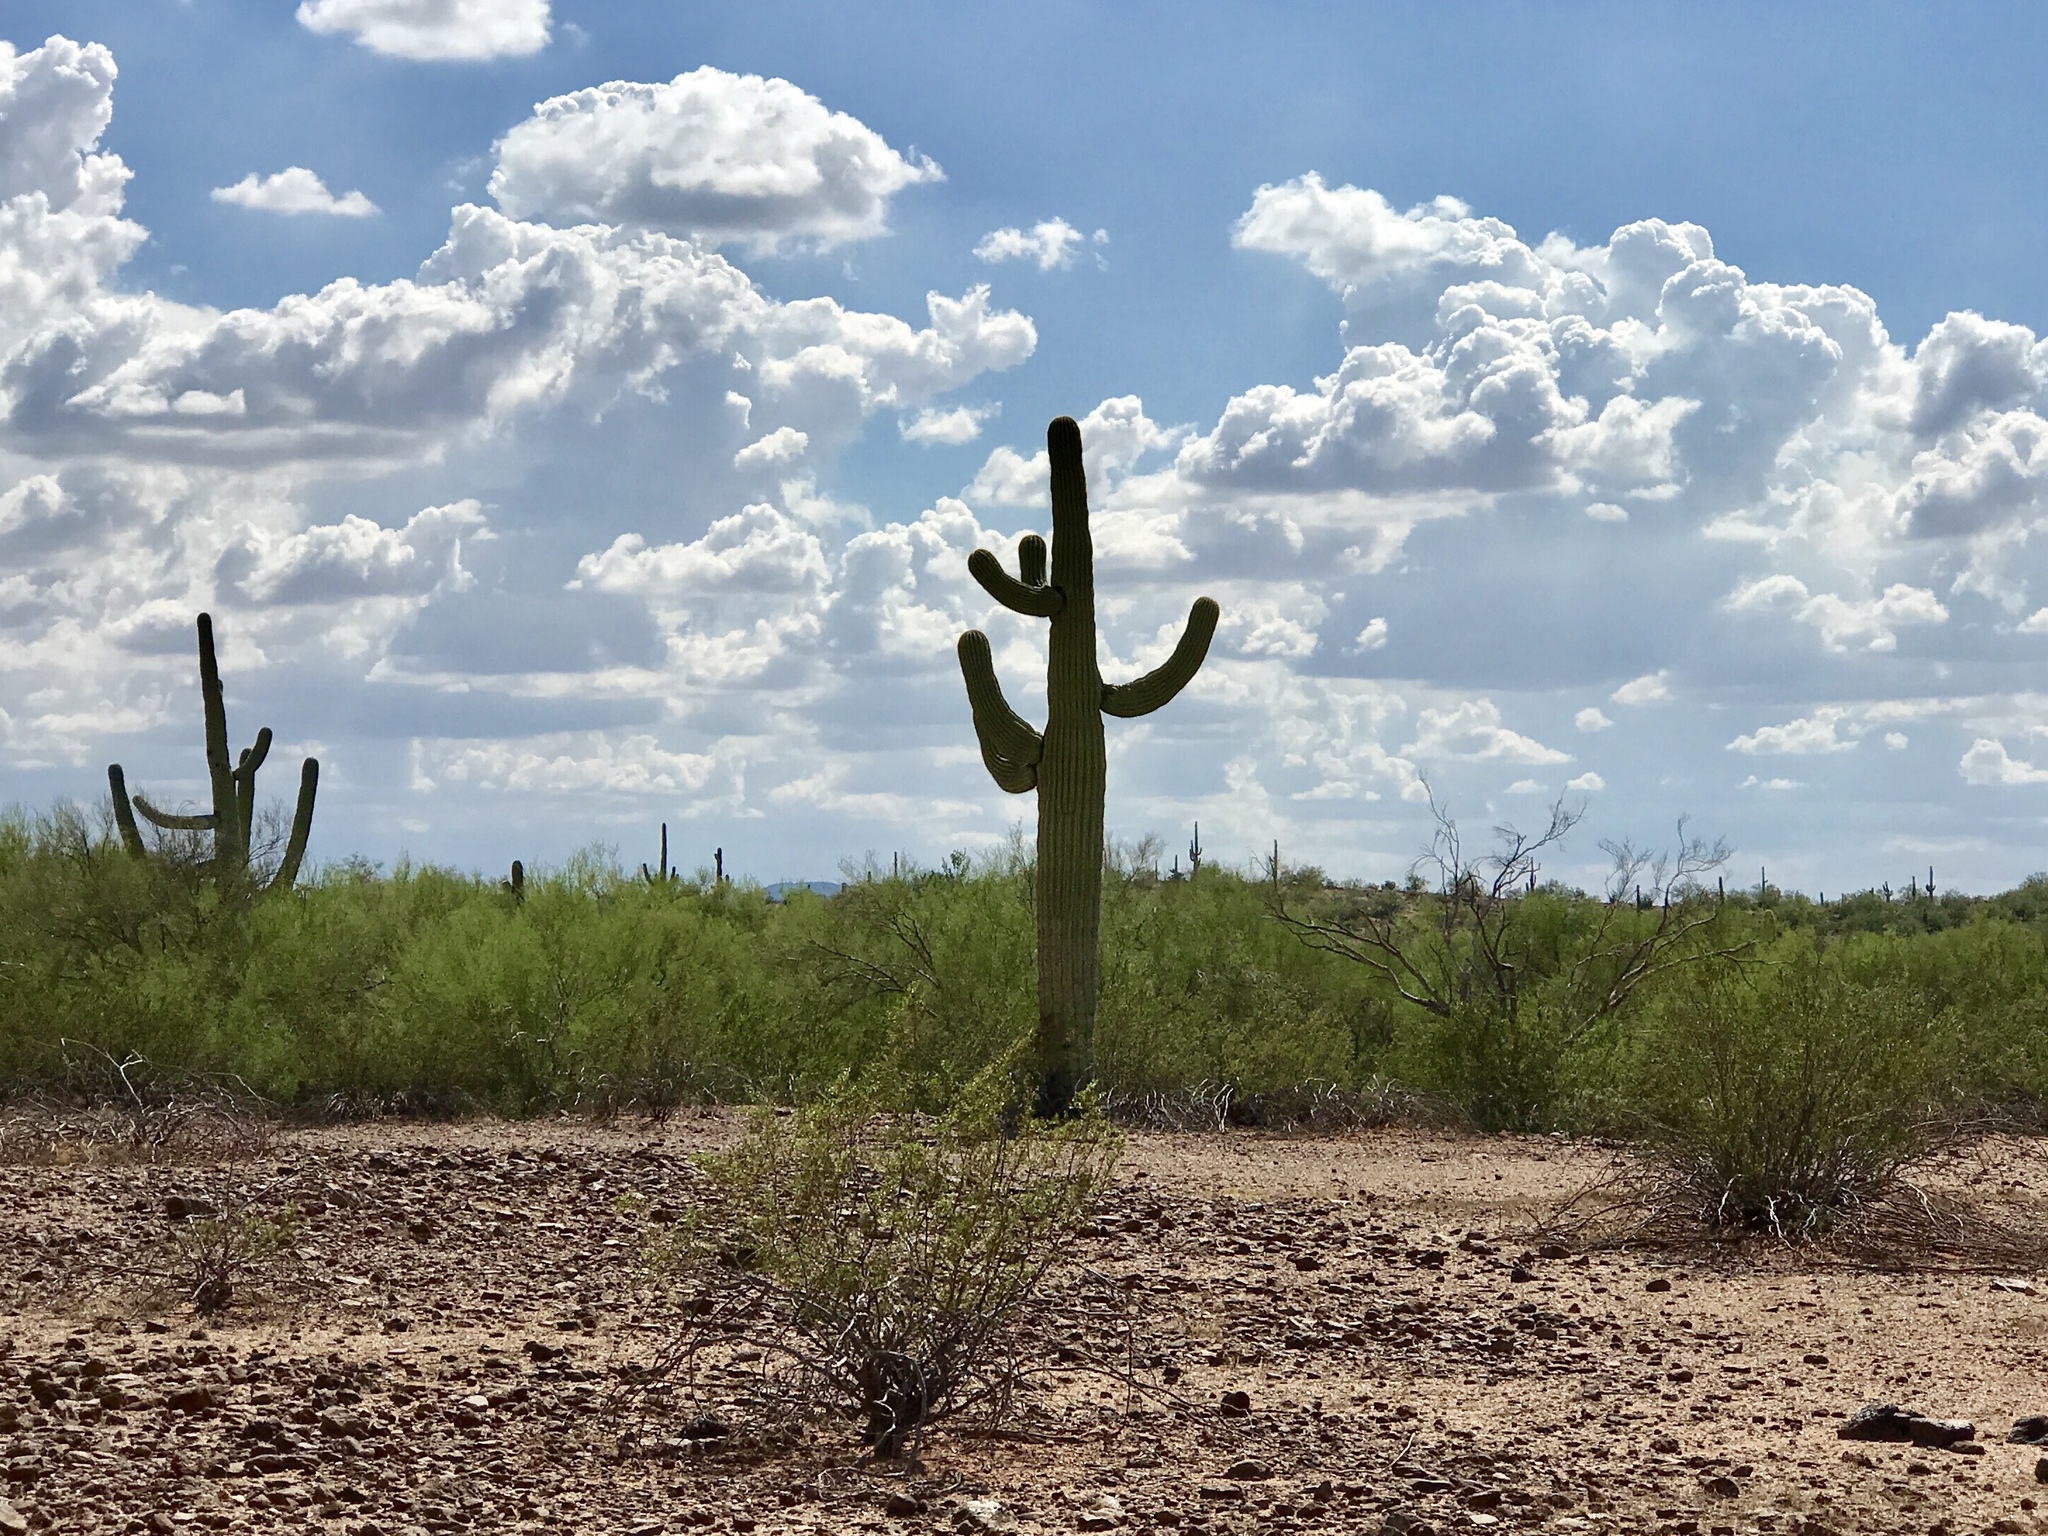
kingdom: Plantae
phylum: Tracheophyta
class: Magnoliopsida
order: Caryophyllales
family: Cactaceae
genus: Carnegiea
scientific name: Carnegiea gigantea
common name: Saguaro
